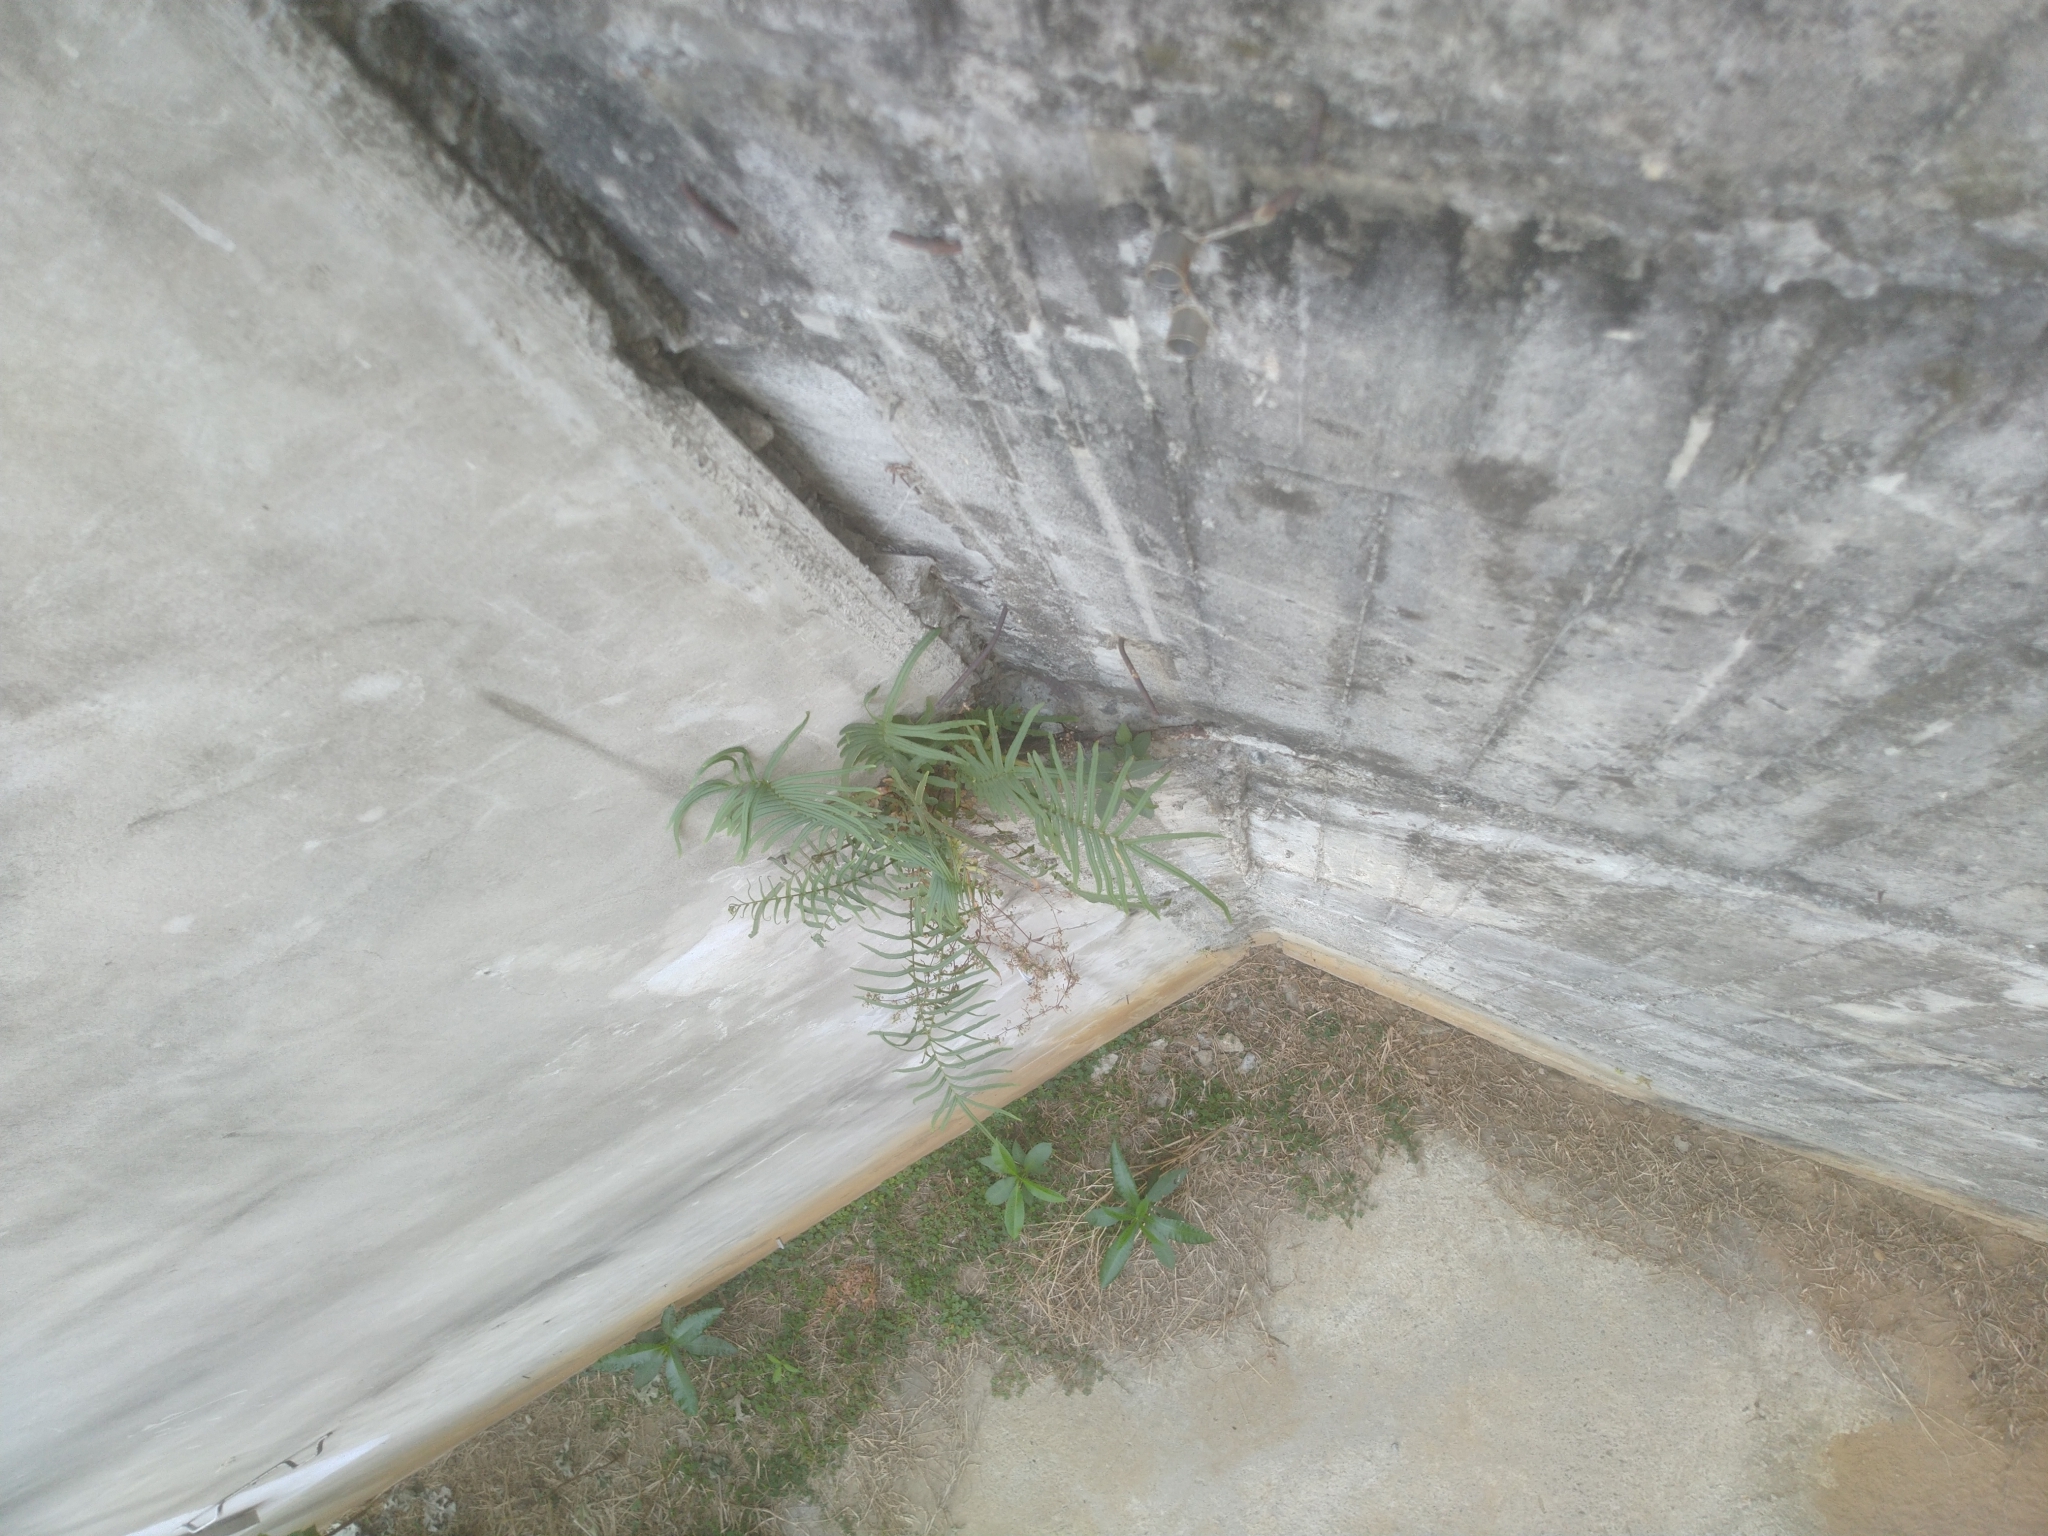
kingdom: Plantae
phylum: Tracheophyta
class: Polypodiopsida
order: Polypodiales
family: Pteridaceae
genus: Pteris
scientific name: Pteris vittata
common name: Ladder brake
